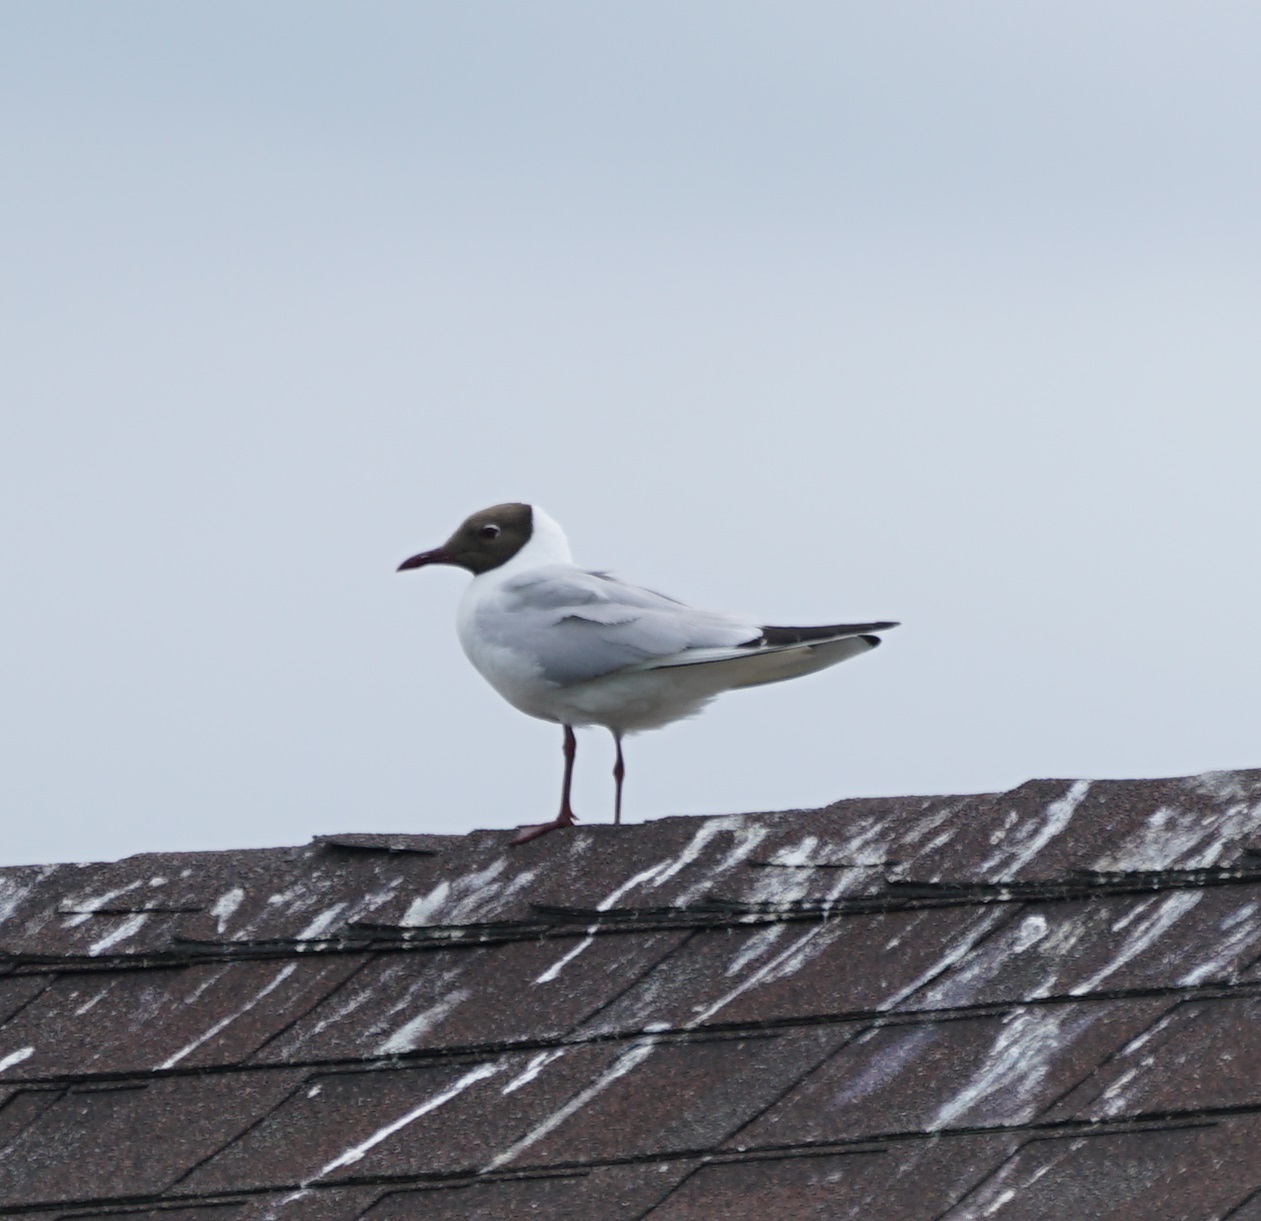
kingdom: Animalia
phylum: Chordata
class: Aves
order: Charadriiformes
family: Laridae
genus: Chroicocephalus
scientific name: Chroicocephalus ridibundus
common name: Black-headed gull
